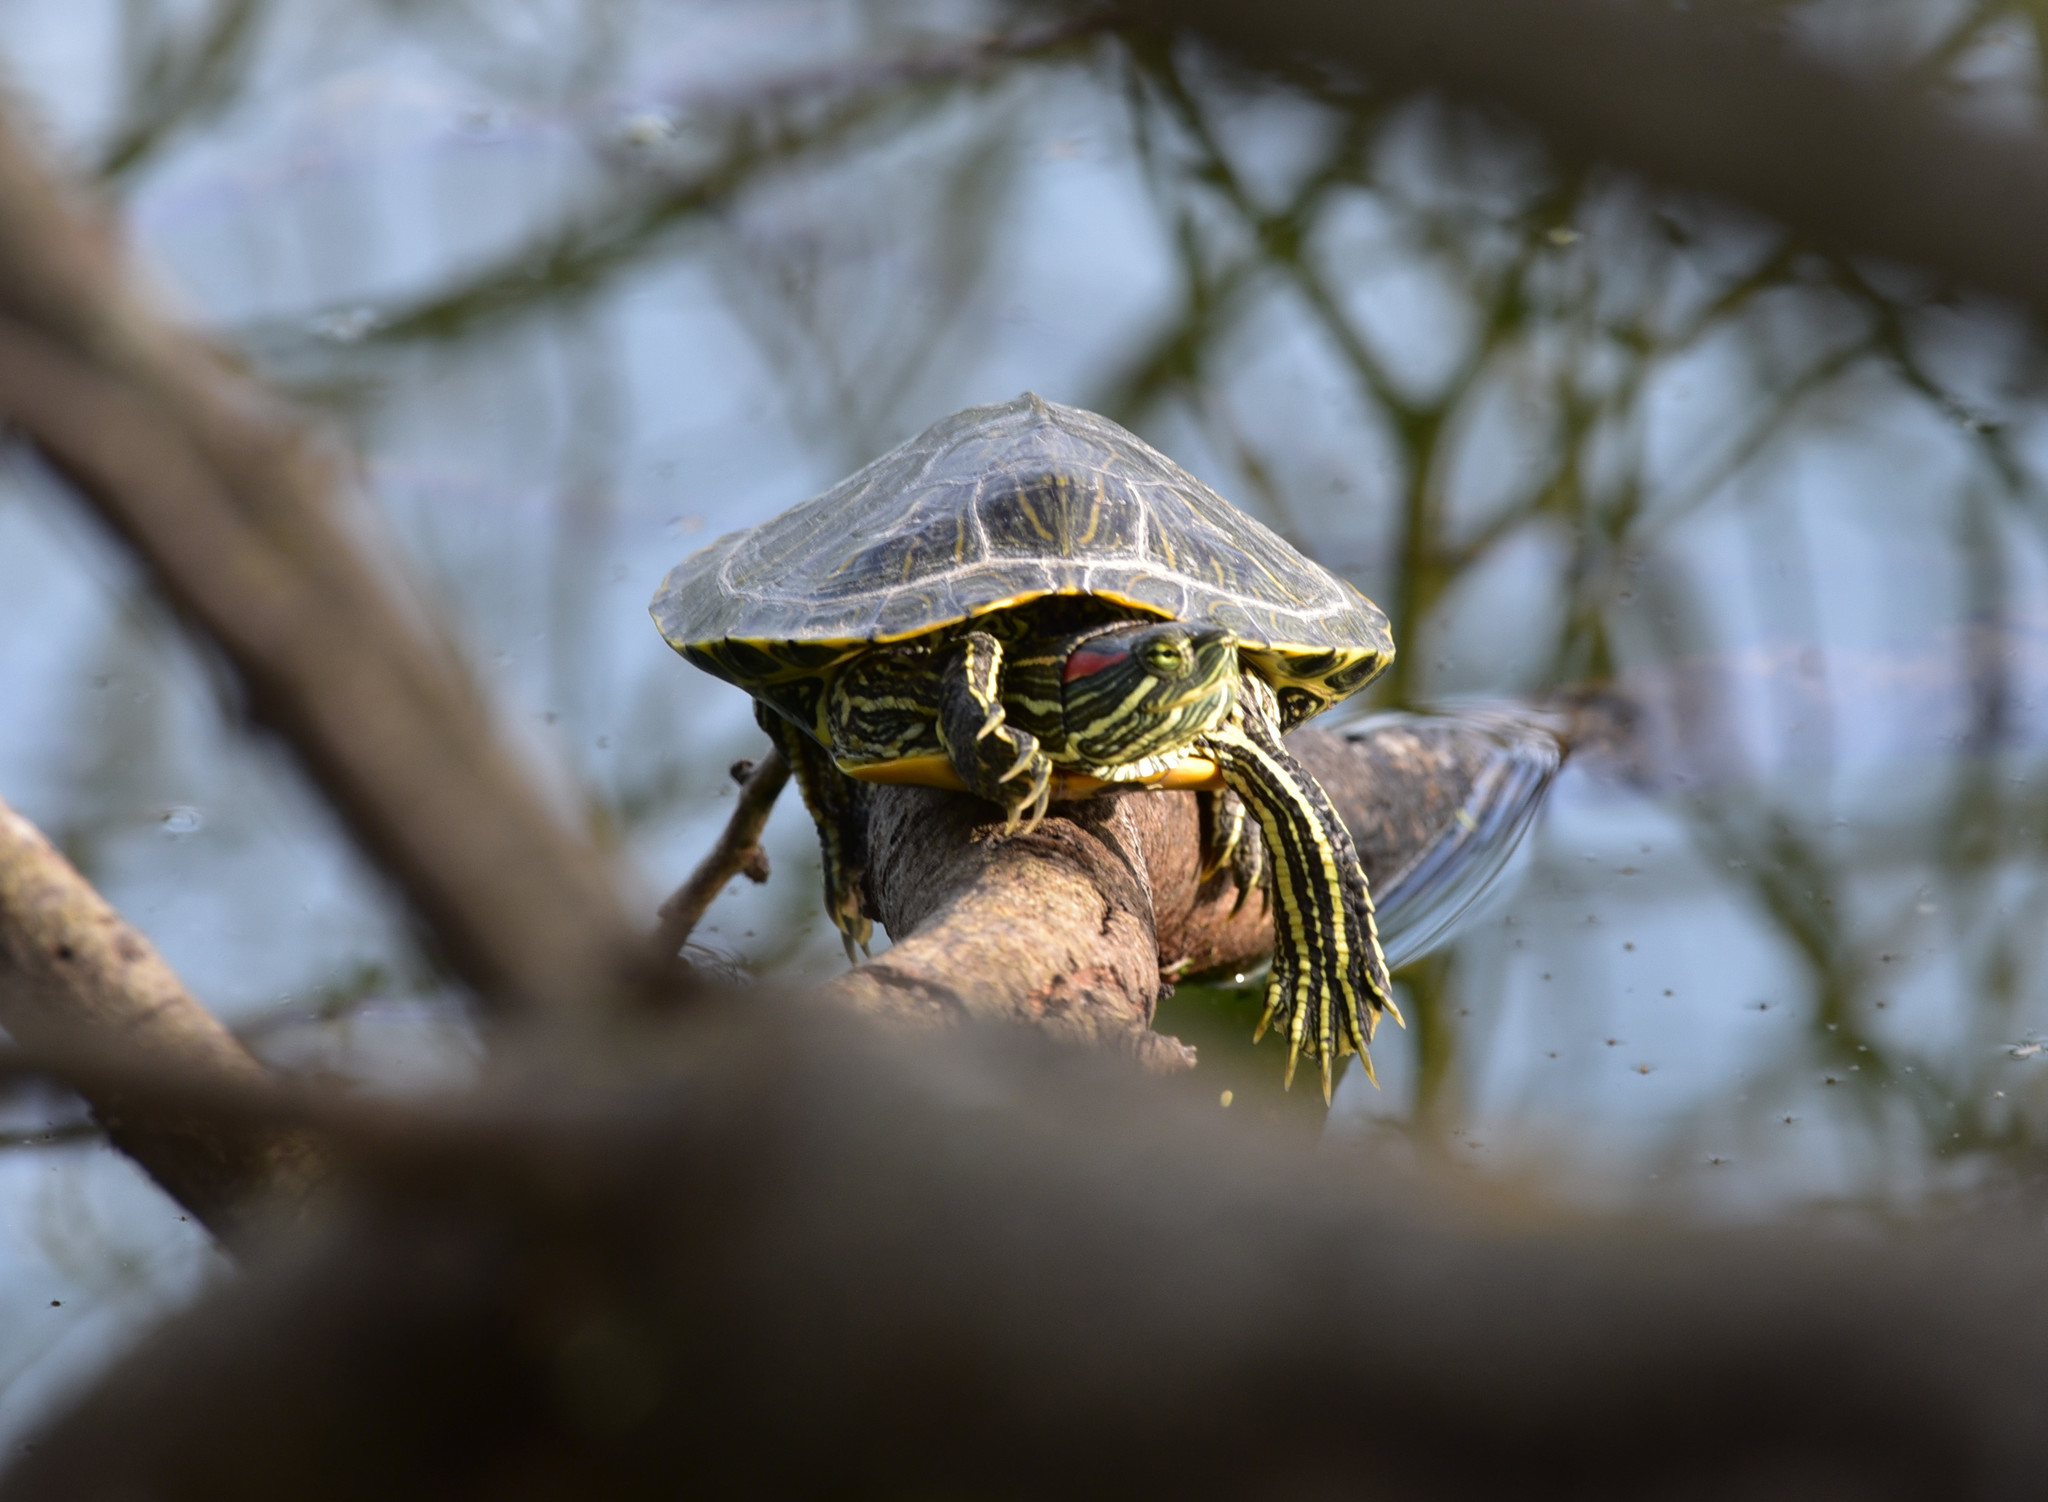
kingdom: Animalia
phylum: Chordata
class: Testudines
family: Emydidae
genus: Trachemys
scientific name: Trachemys scripta
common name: Slider
